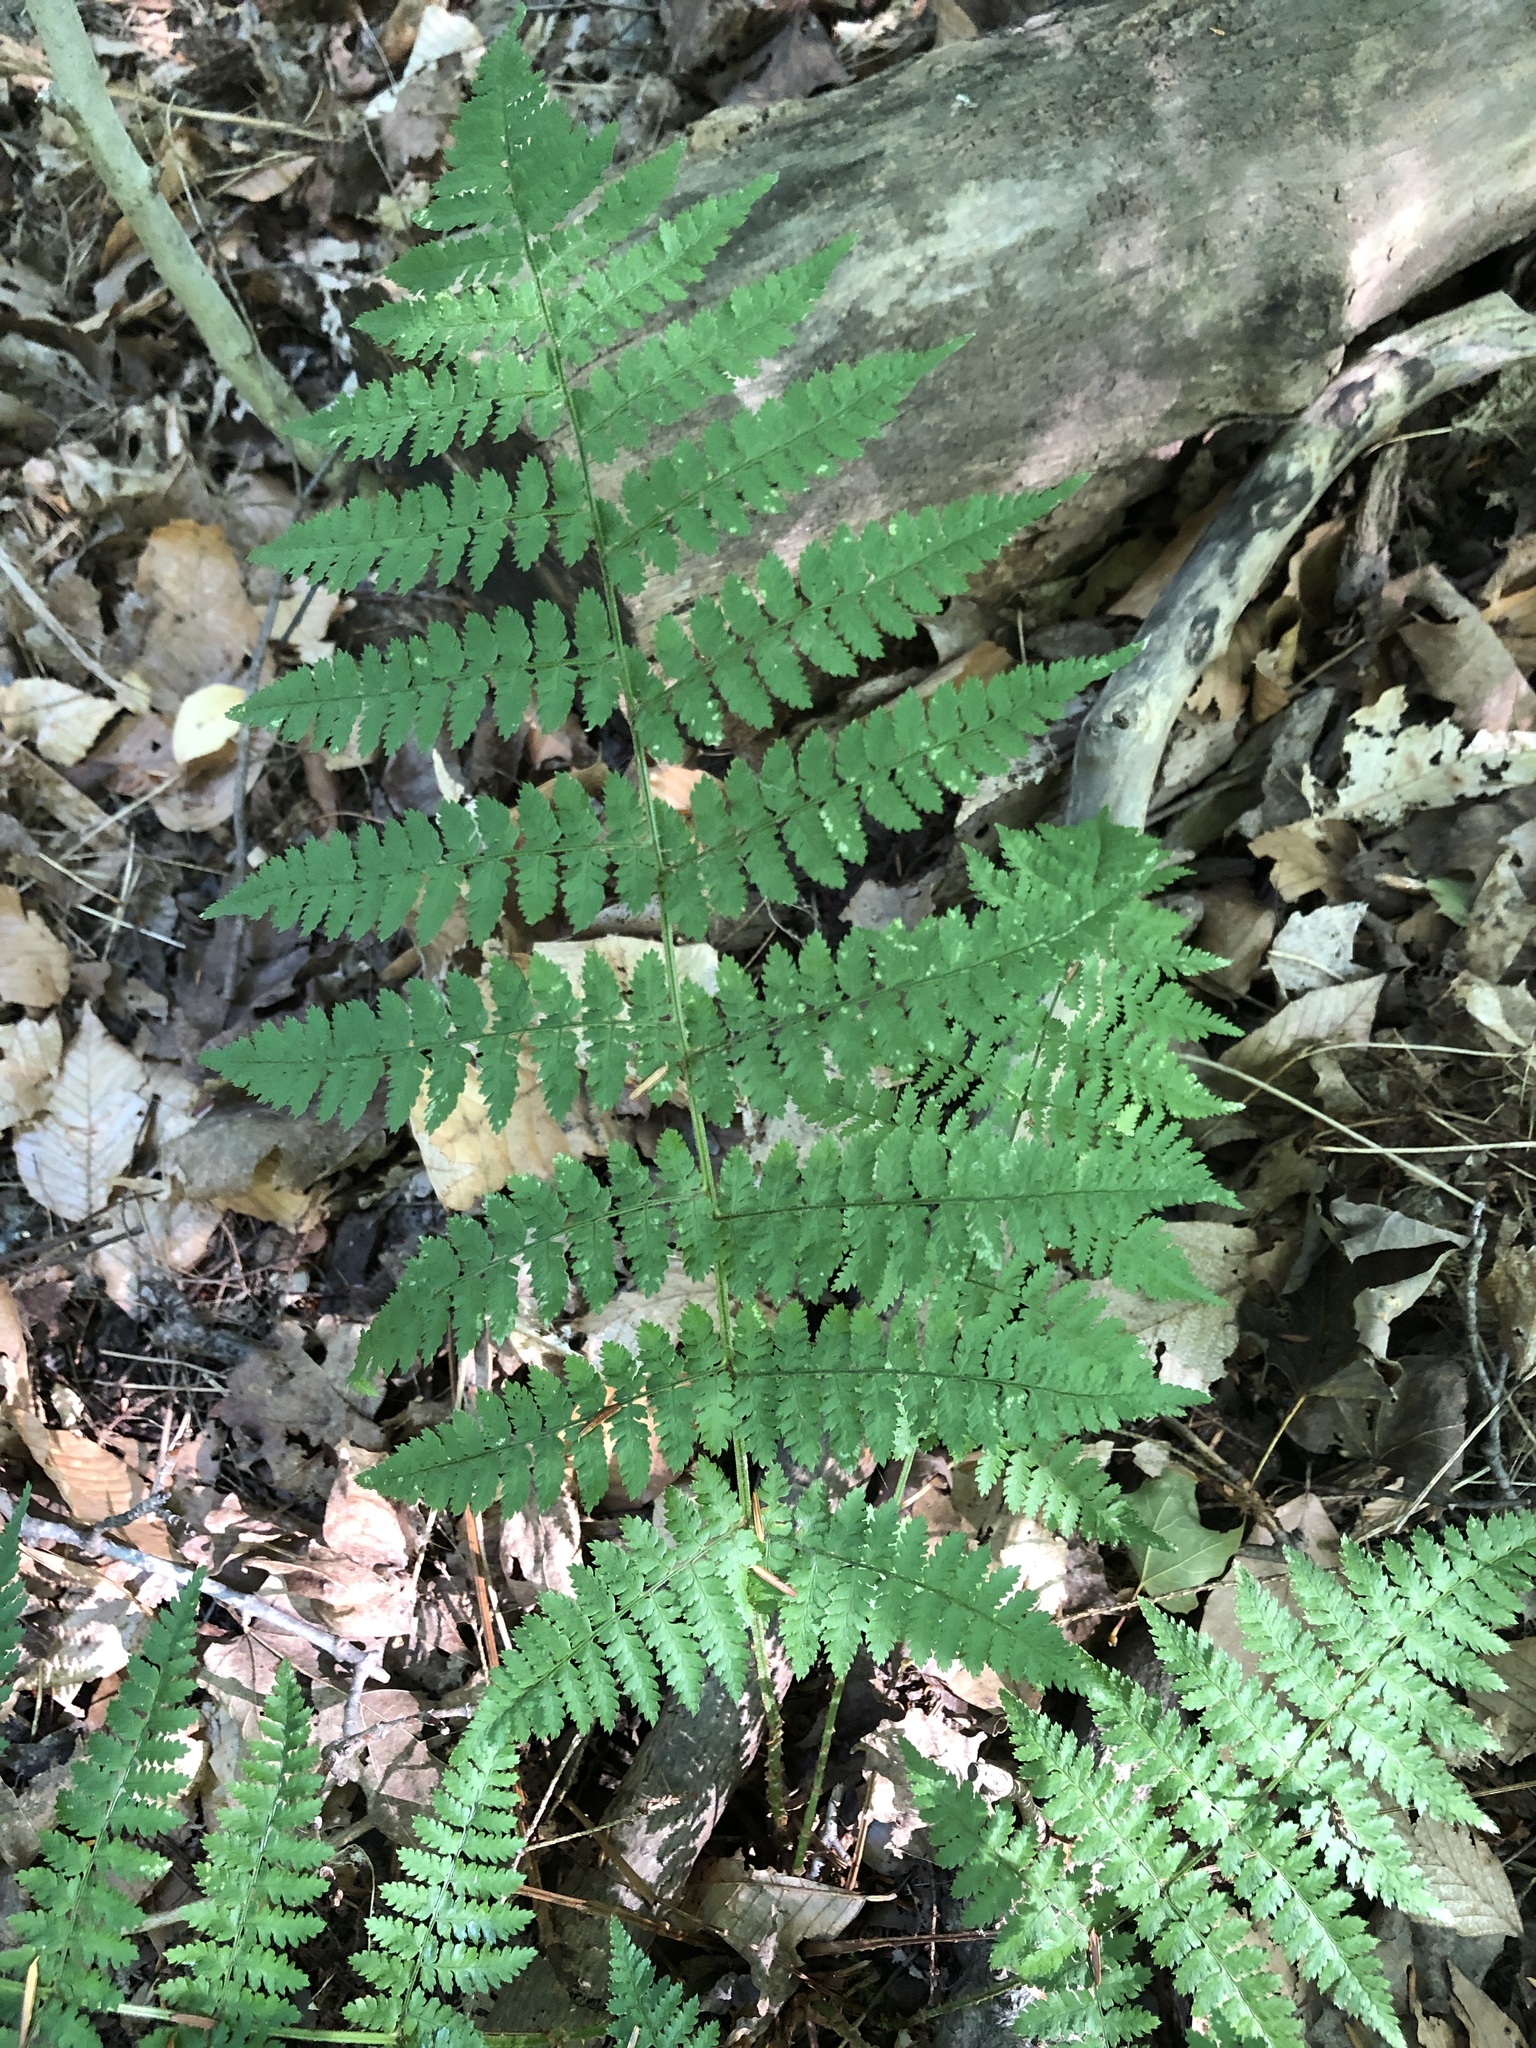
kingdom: Plantae
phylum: Tracheophyta
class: Polypodiopsida
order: Polypodiales
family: Dryopteridaceae
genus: Dryopteris
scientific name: Dryopteris intermedia
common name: Evergreen wood fern
